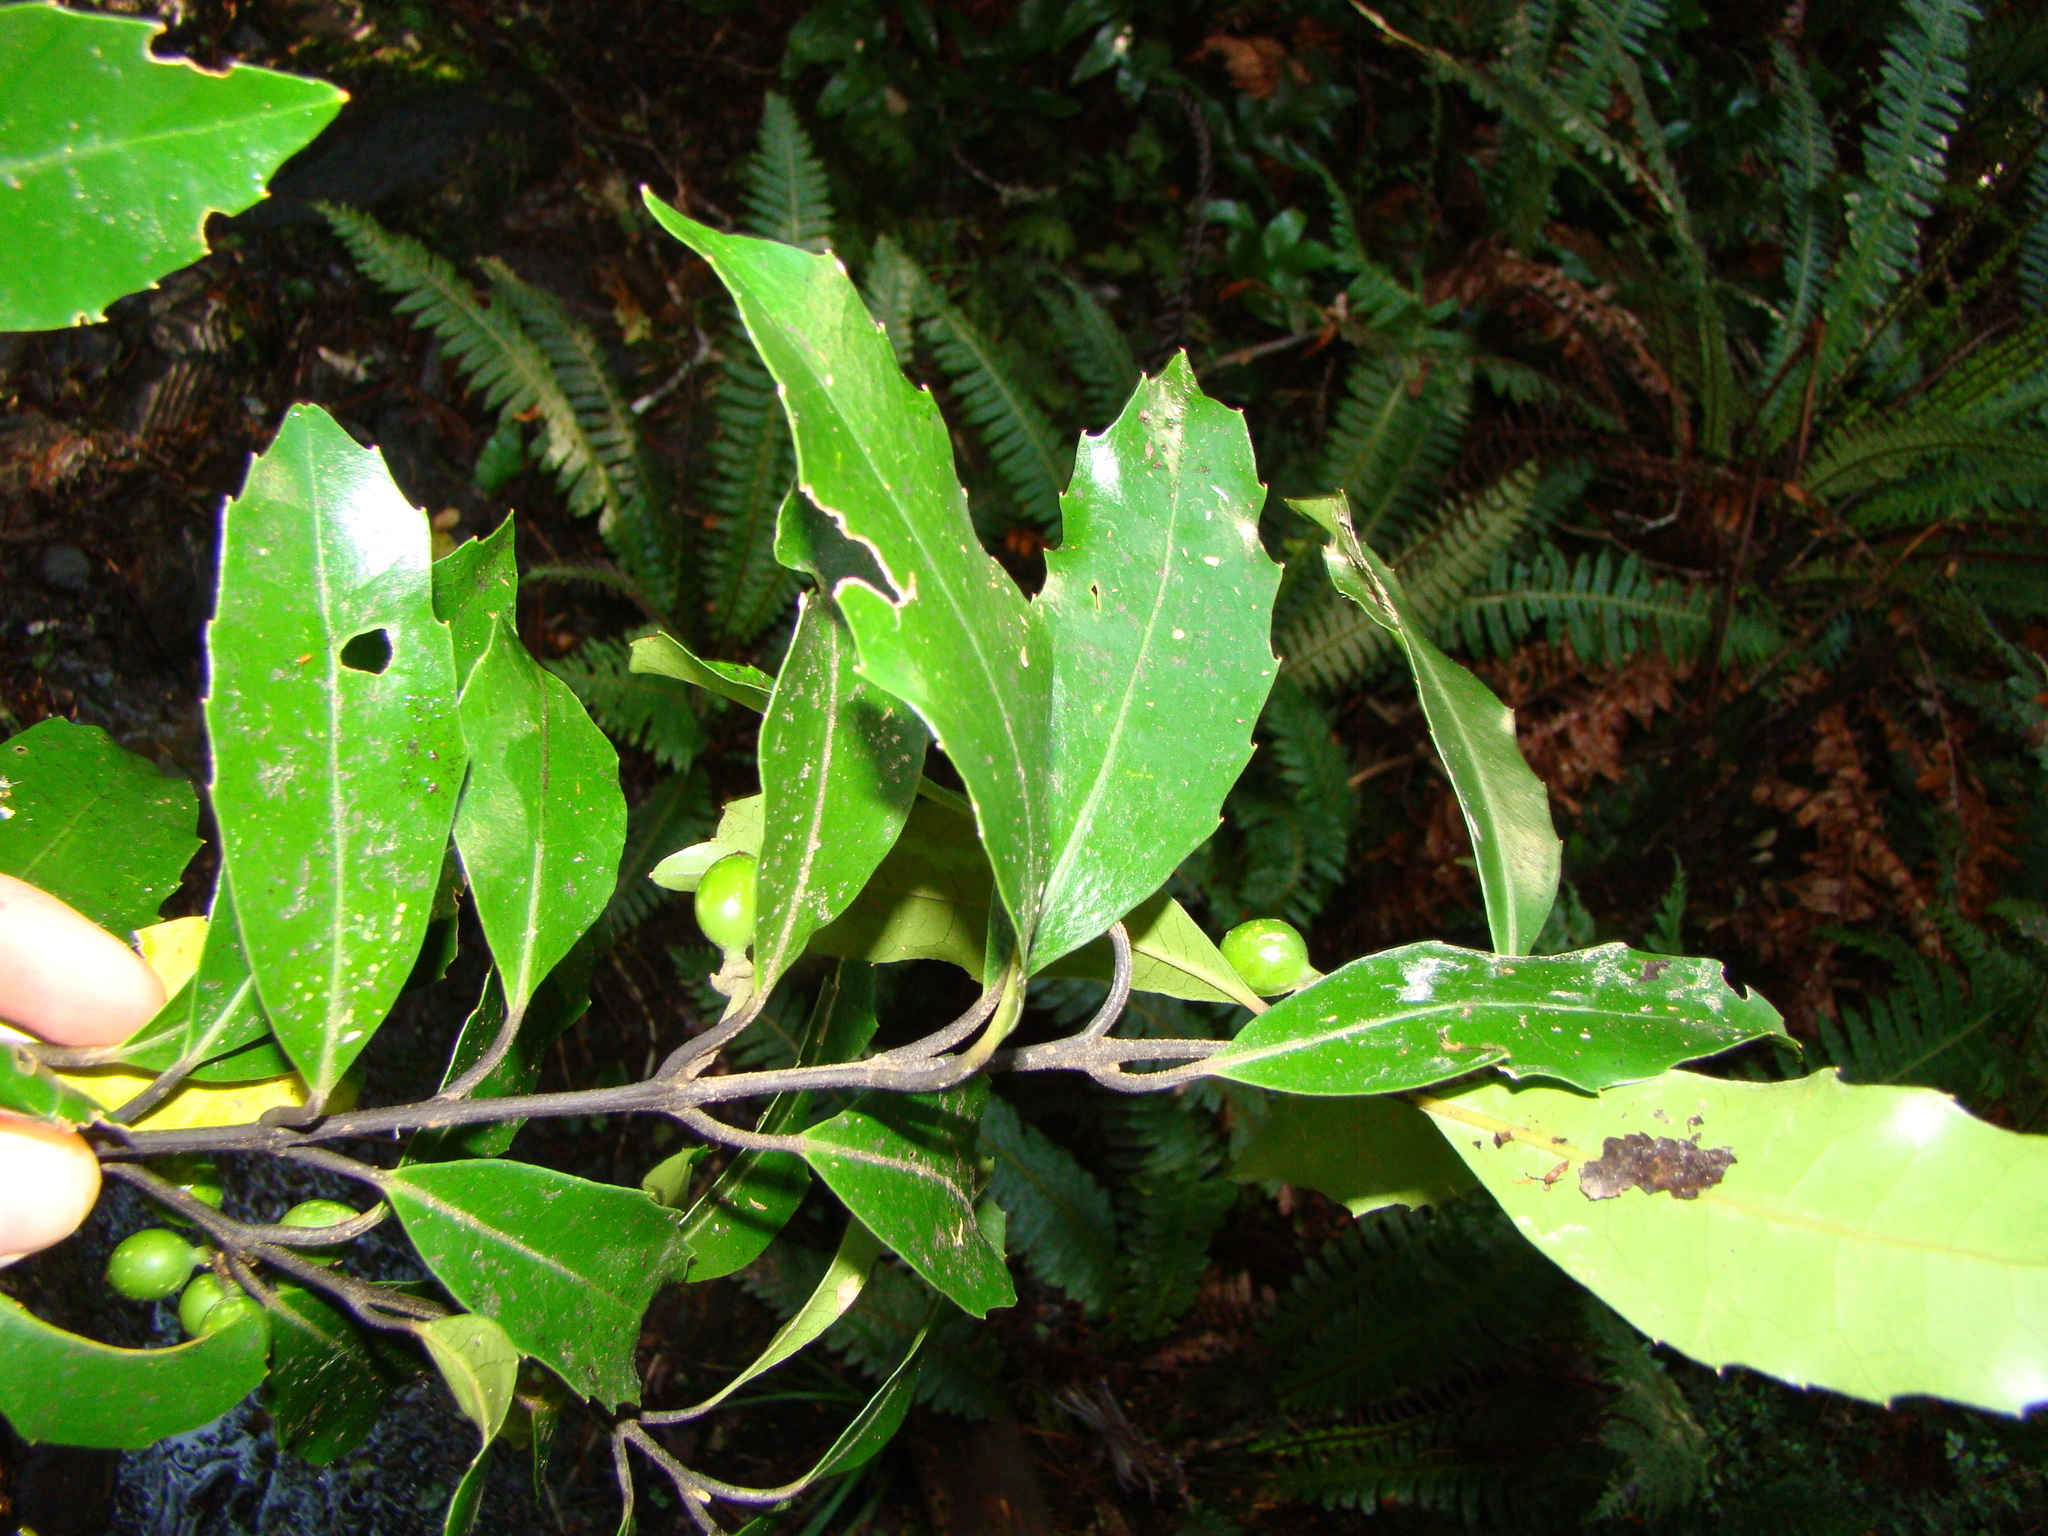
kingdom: Plantae
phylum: Tracheophyta
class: Magnoliopsida
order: Laurales
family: Monimiaceae
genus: Hedycarya
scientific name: Hedycarya arborea
